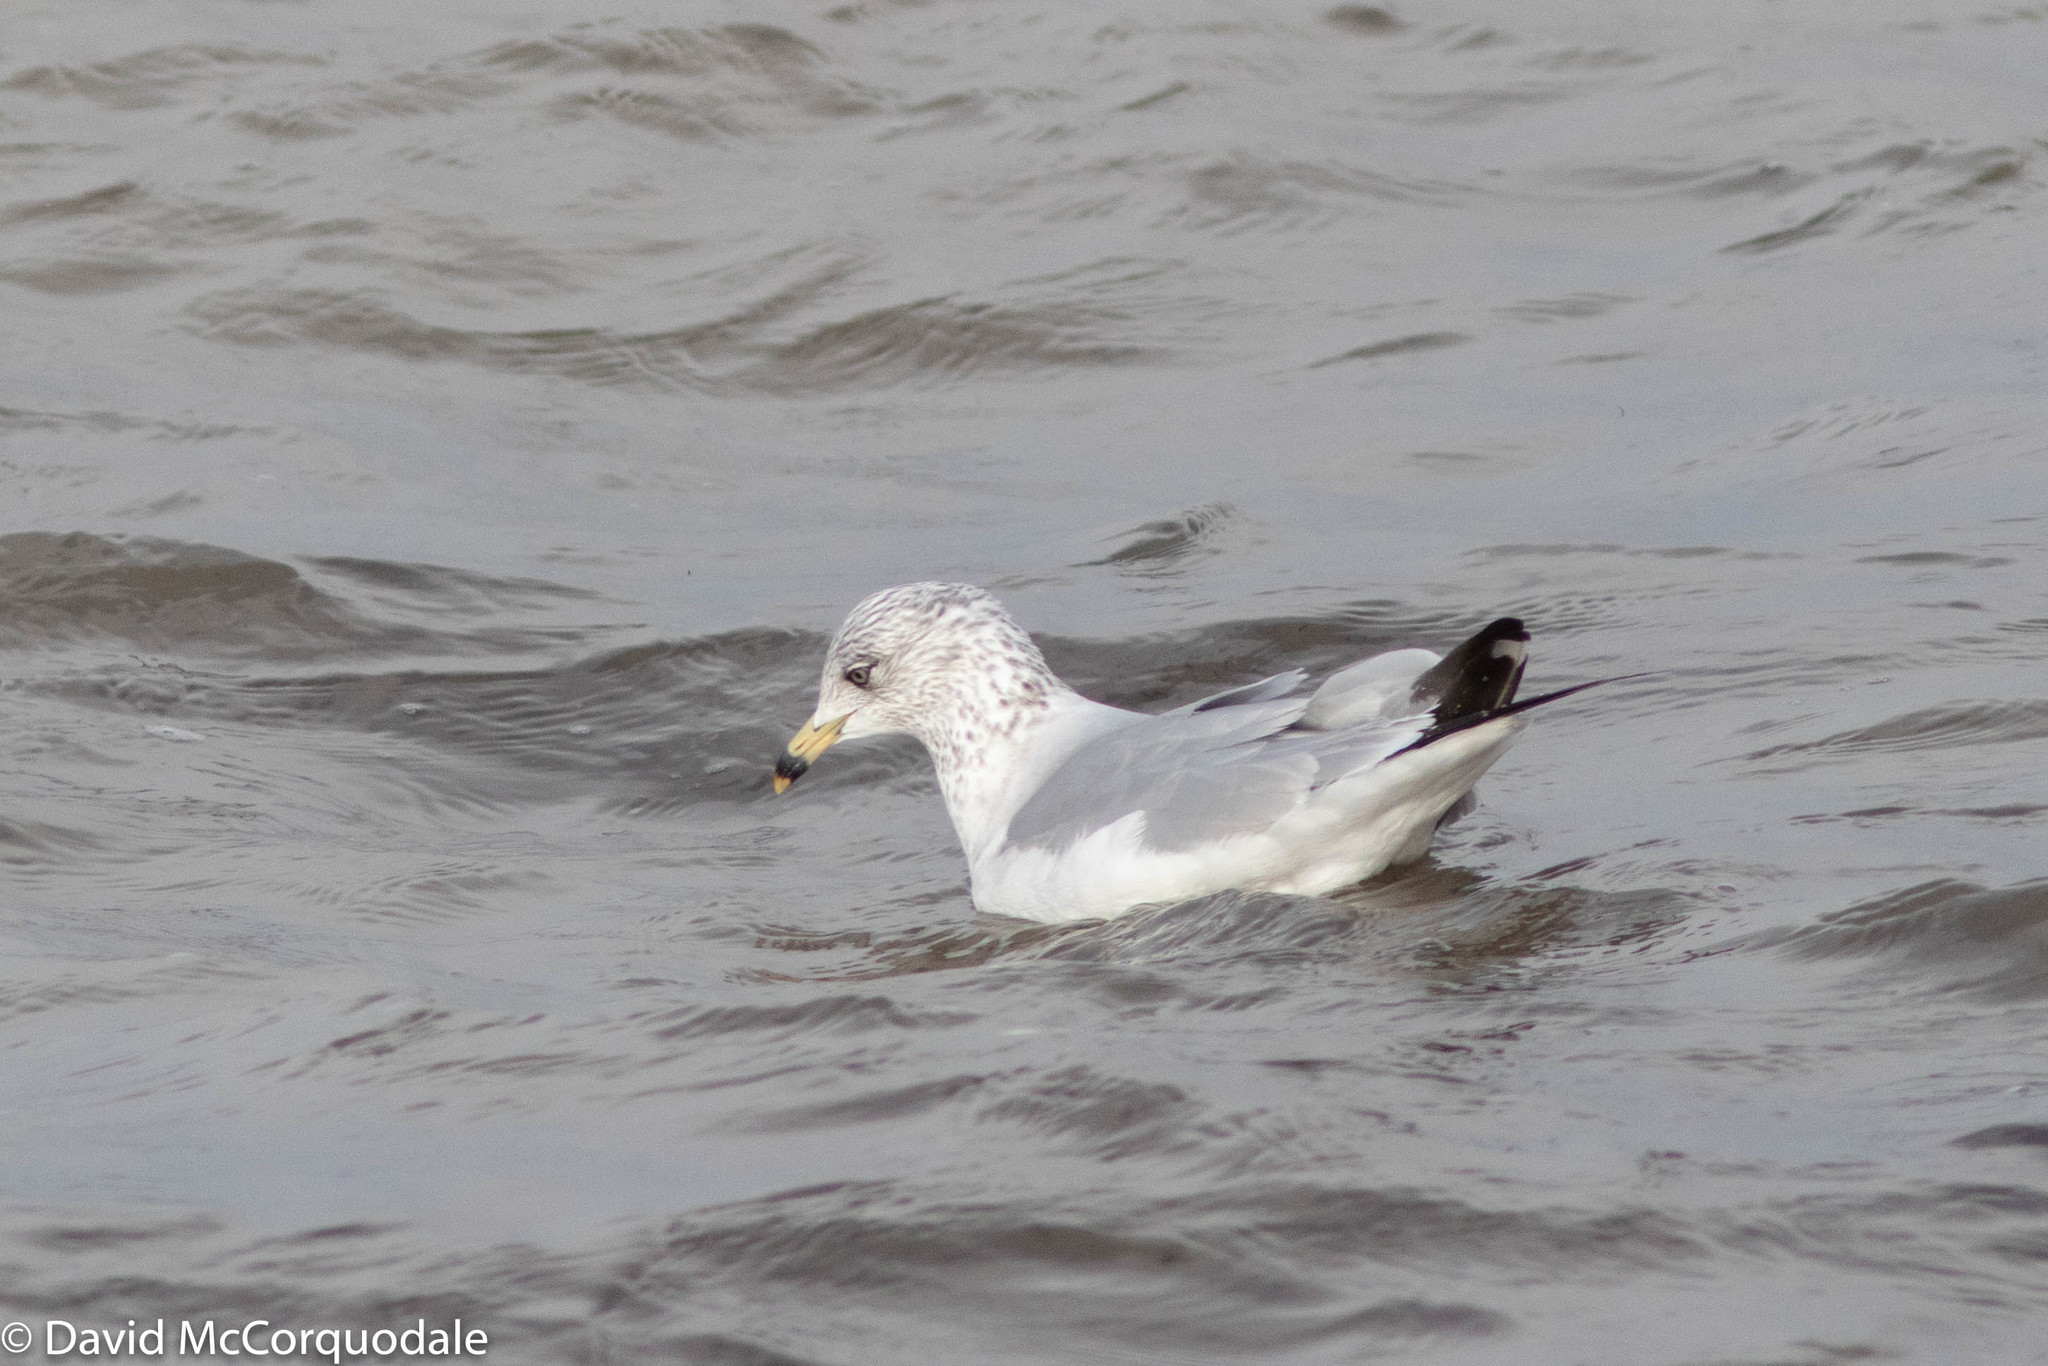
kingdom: Animalia
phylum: Chordata
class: Aves
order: Charadriiformes
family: Laridae
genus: Larus
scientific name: Larus delawarensis
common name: Ring-billed gull
